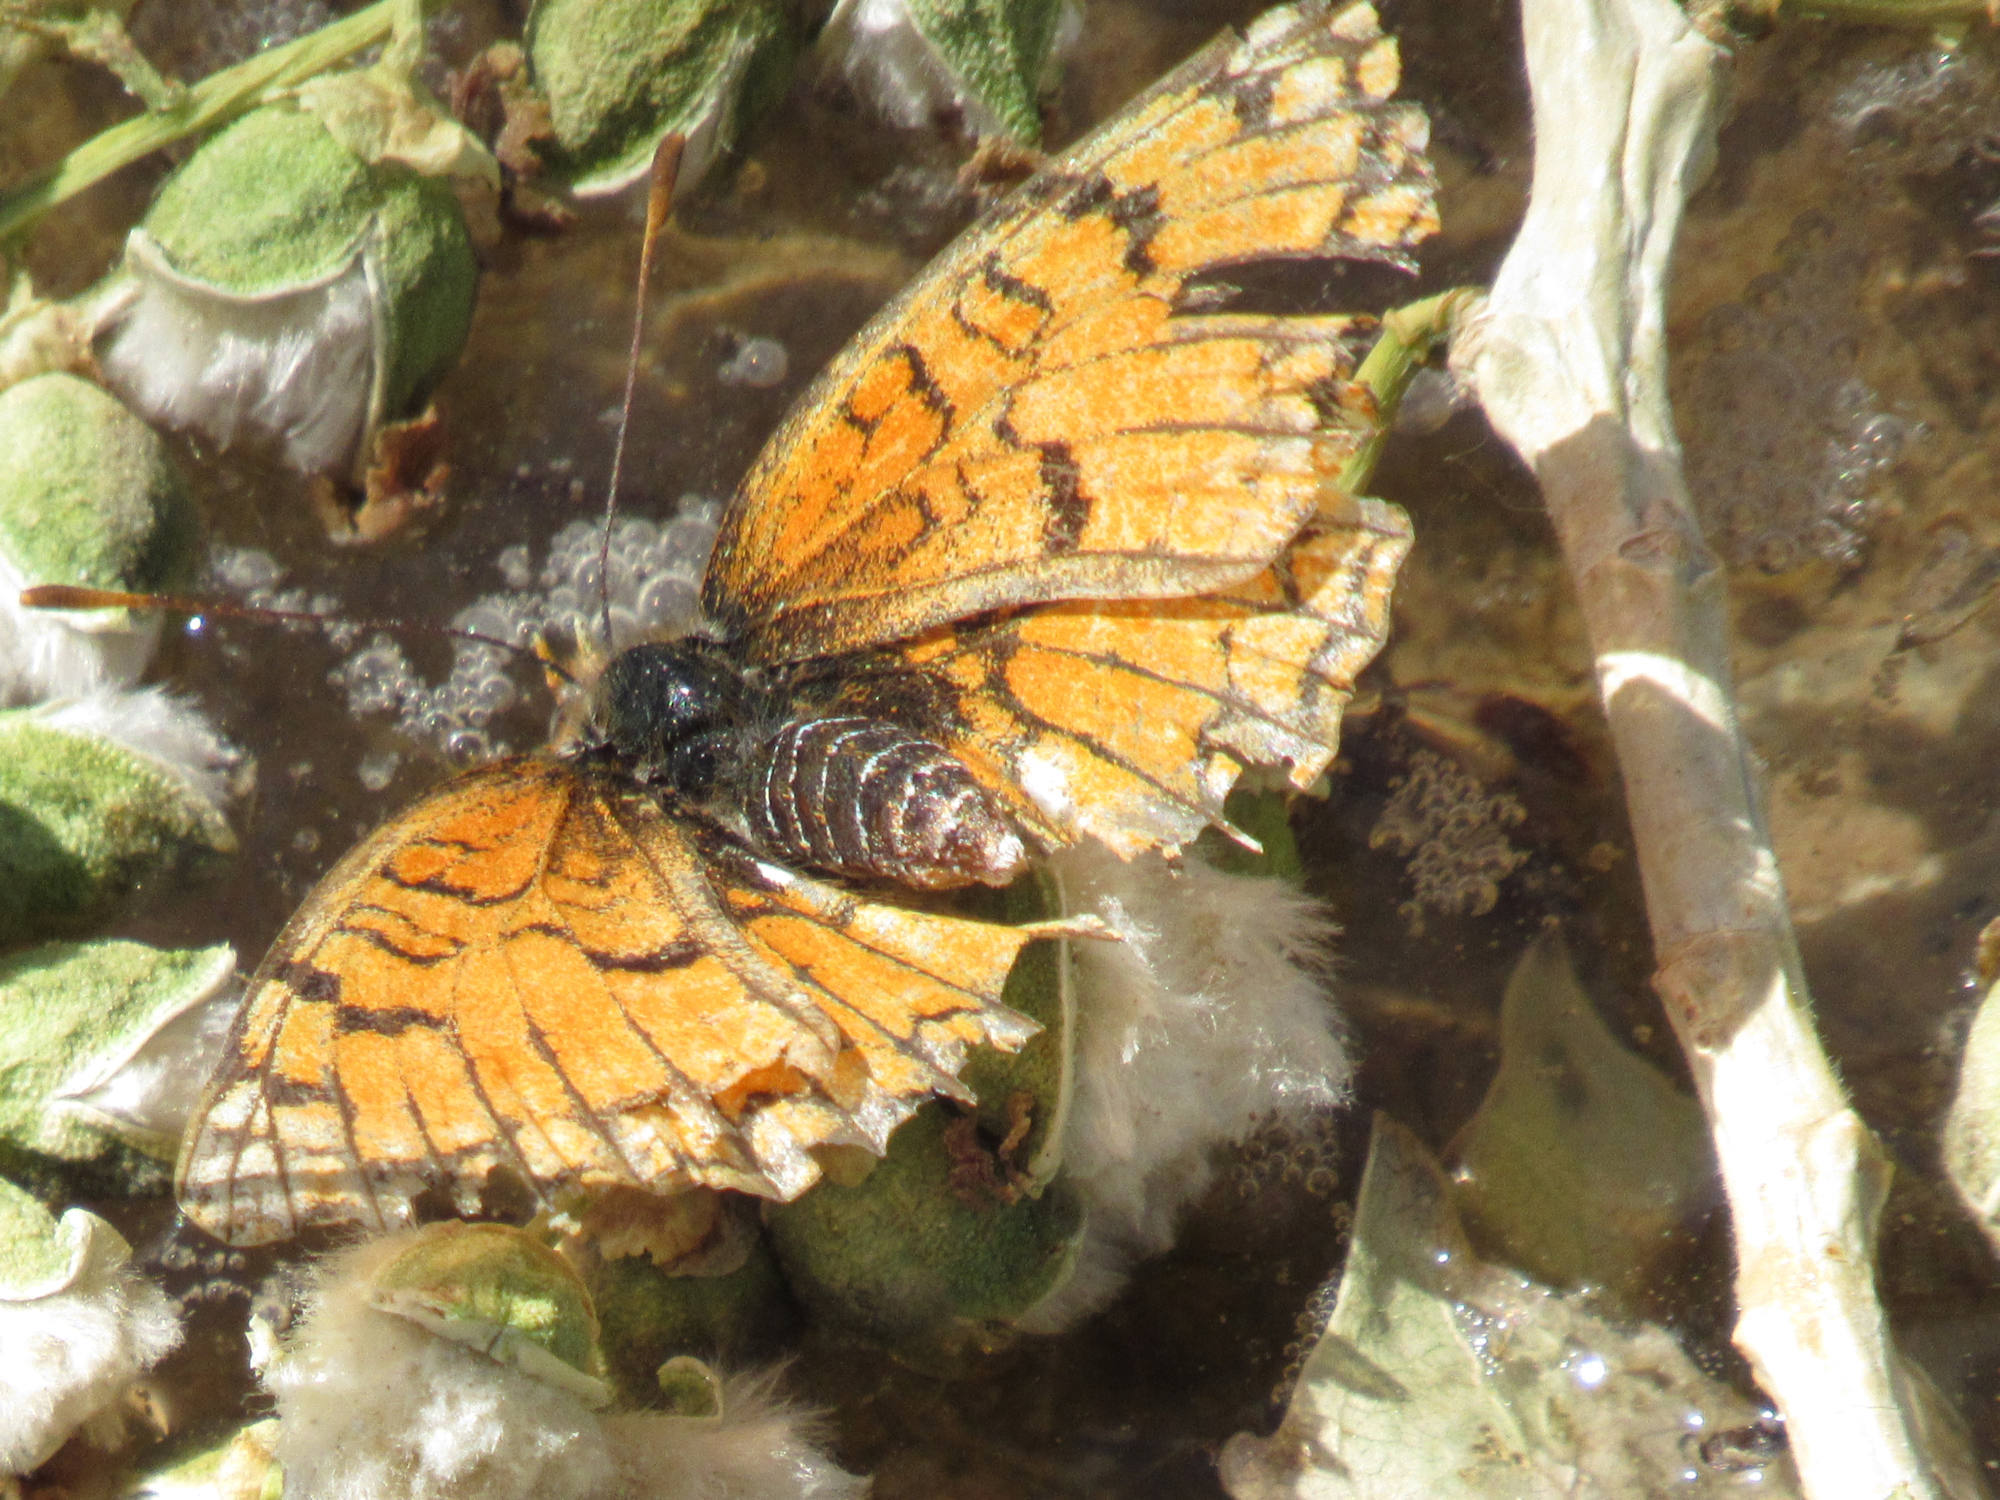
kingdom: Animalia
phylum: Arthropoda
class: Insecta
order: Lepidoptera
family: Nymphalidae
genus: Chlosyne
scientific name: Chlosyne acastus
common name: Sagebrush checkerspot
